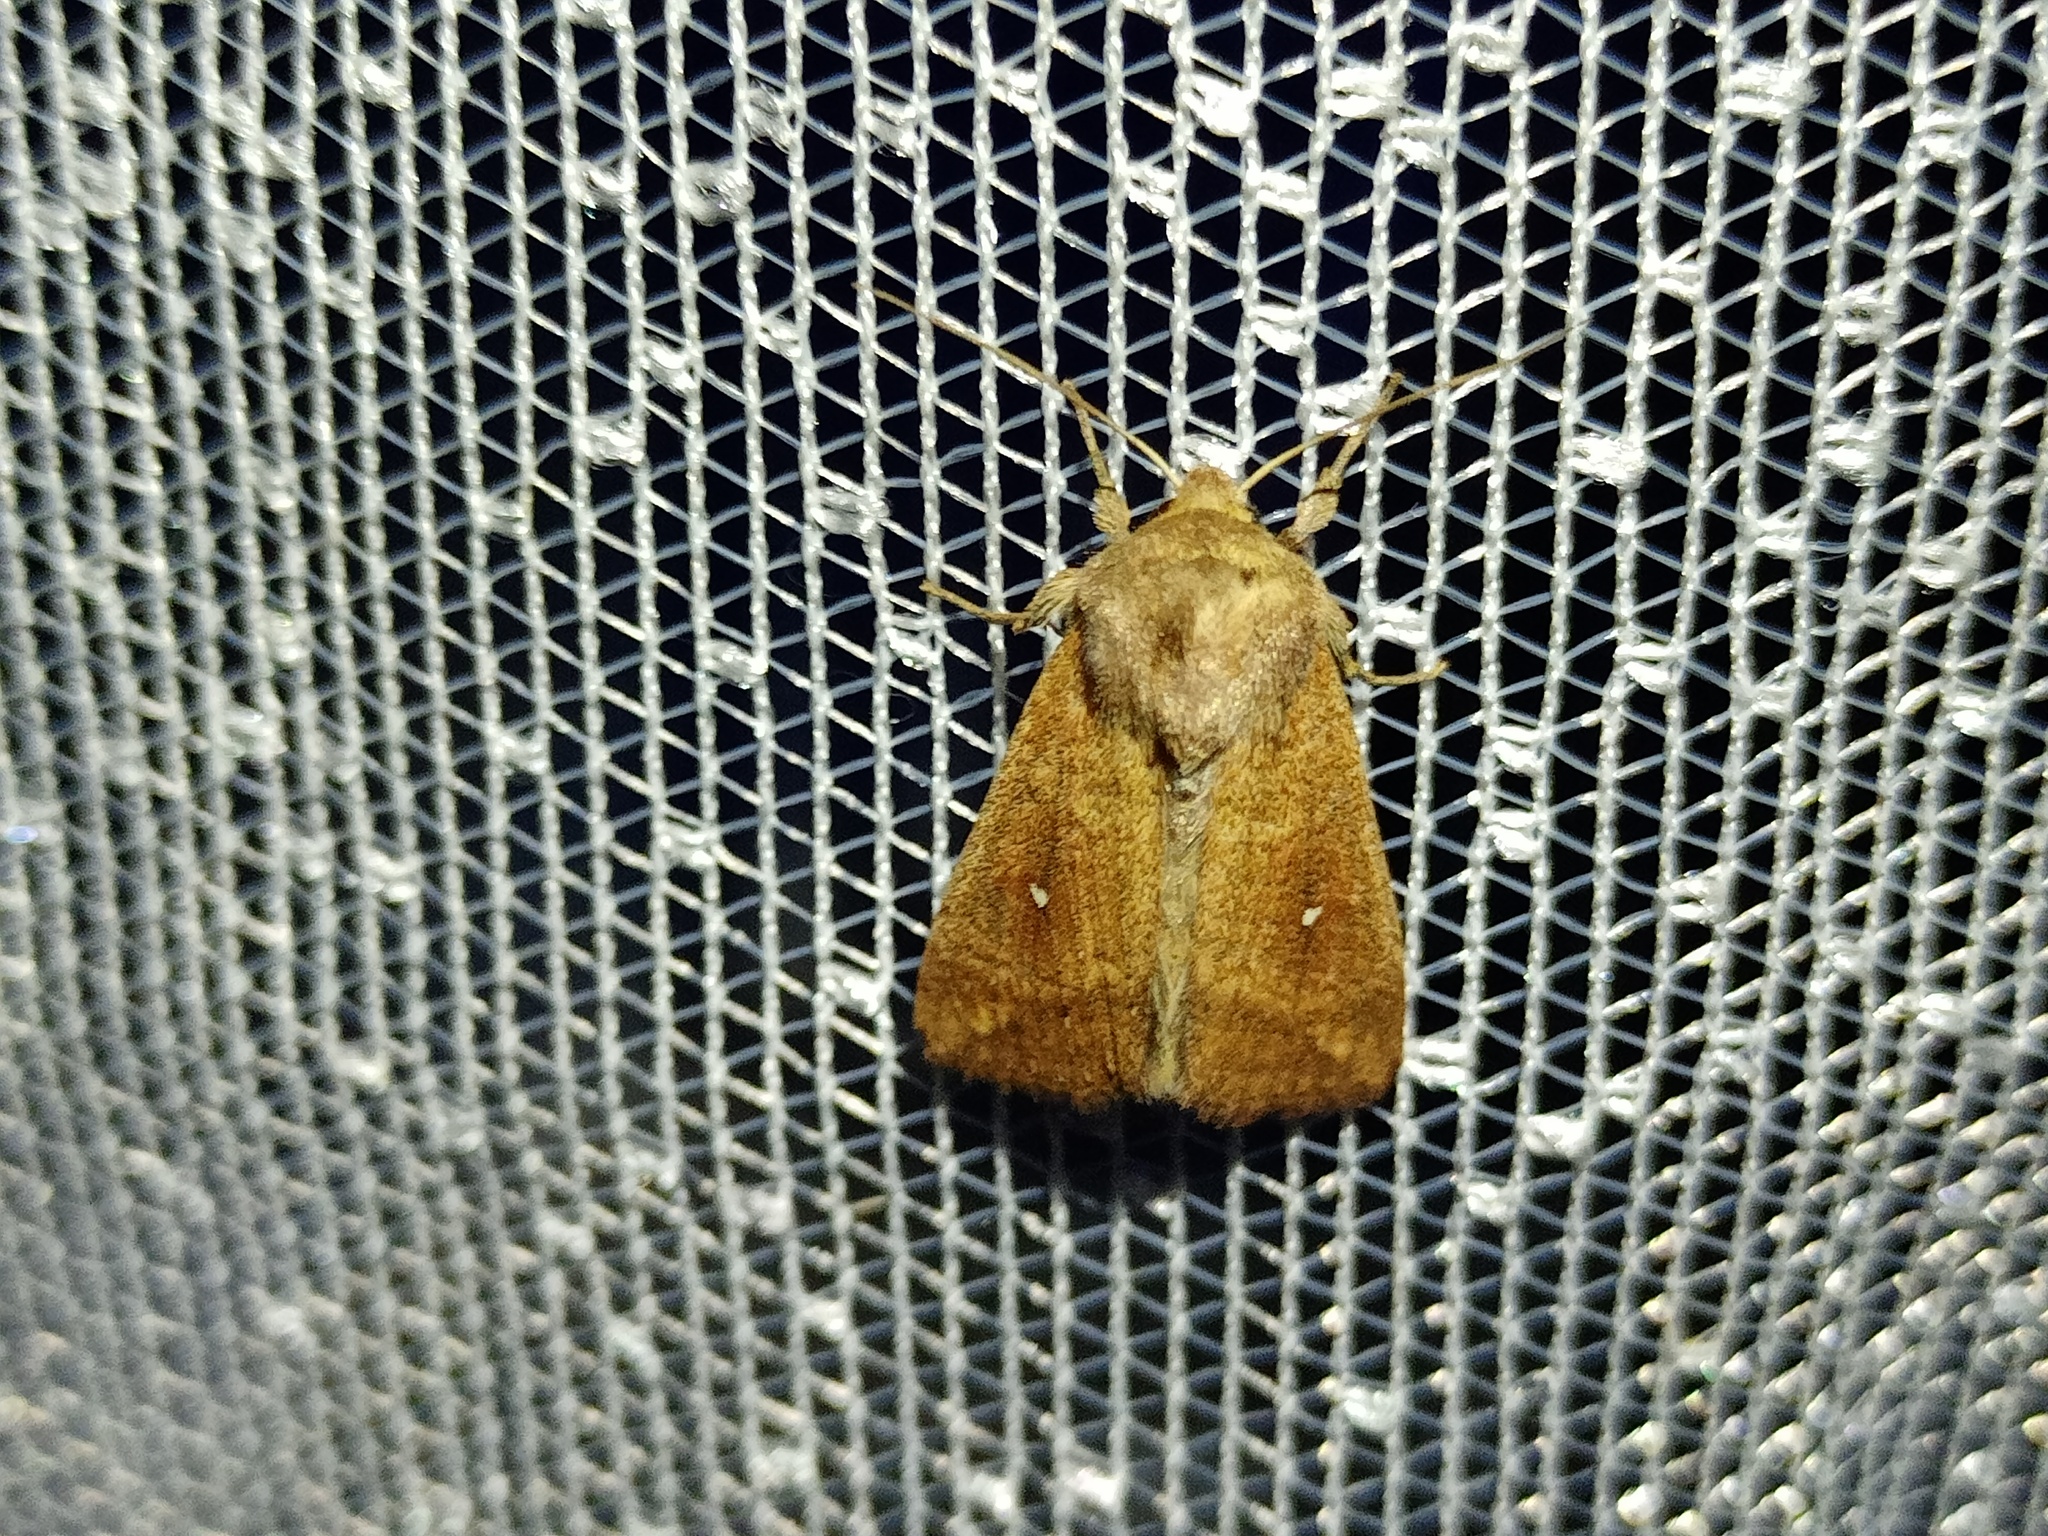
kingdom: Animalia
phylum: Arthropoda
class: Insecta
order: Lepidoptera
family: Noctuidae
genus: Mythimna
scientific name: Mythimna albipuncta
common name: White-point
